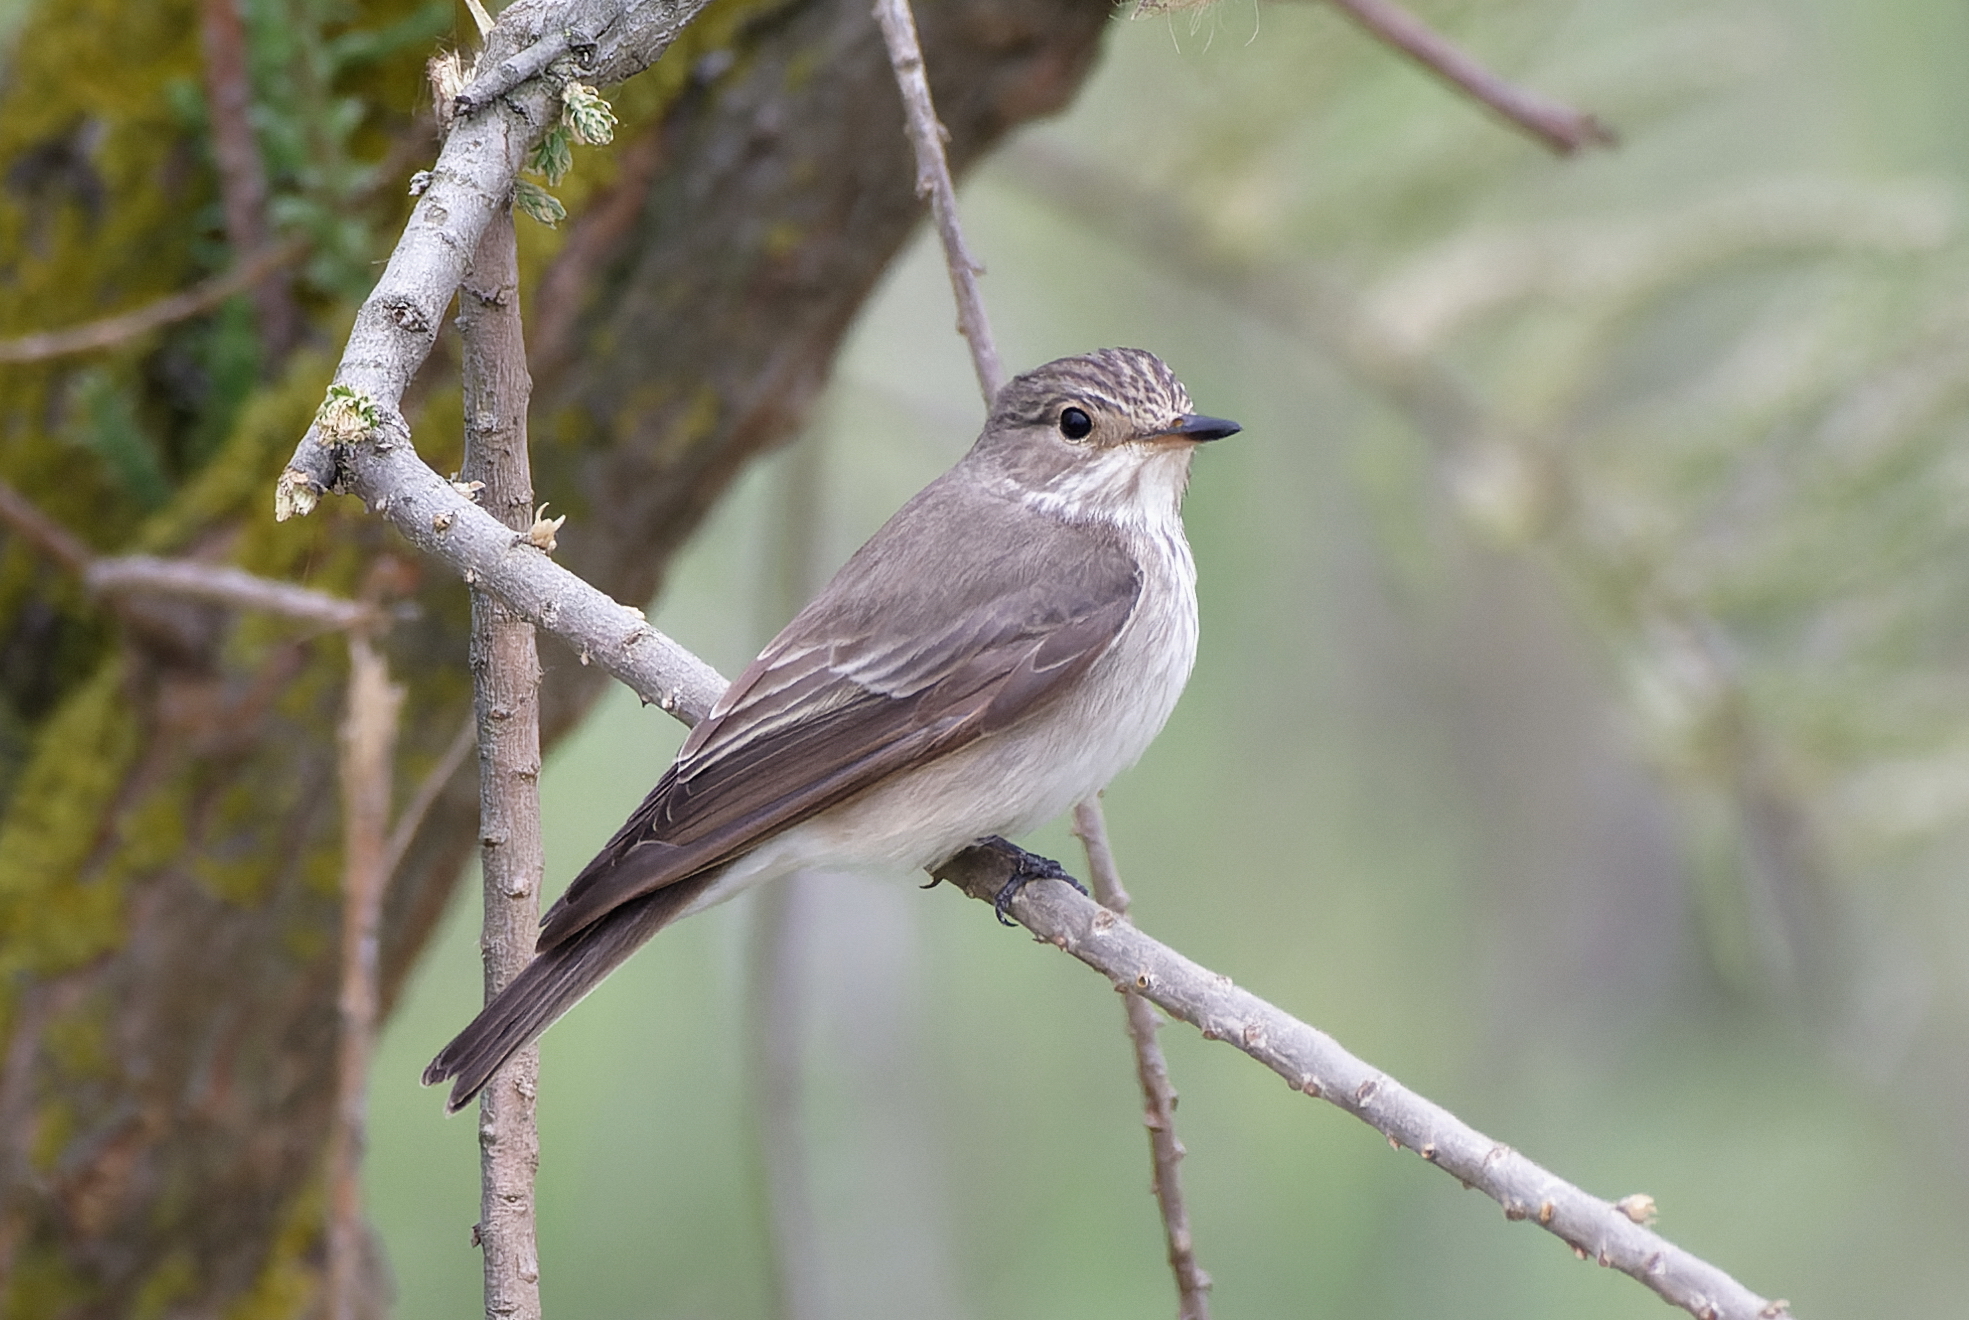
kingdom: Animalia
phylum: Chordata
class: Aves
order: Passeriformes
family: Muscicapidae
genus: Muscicapa
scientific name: Muscicapa striata
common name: Spotted flycatcher
